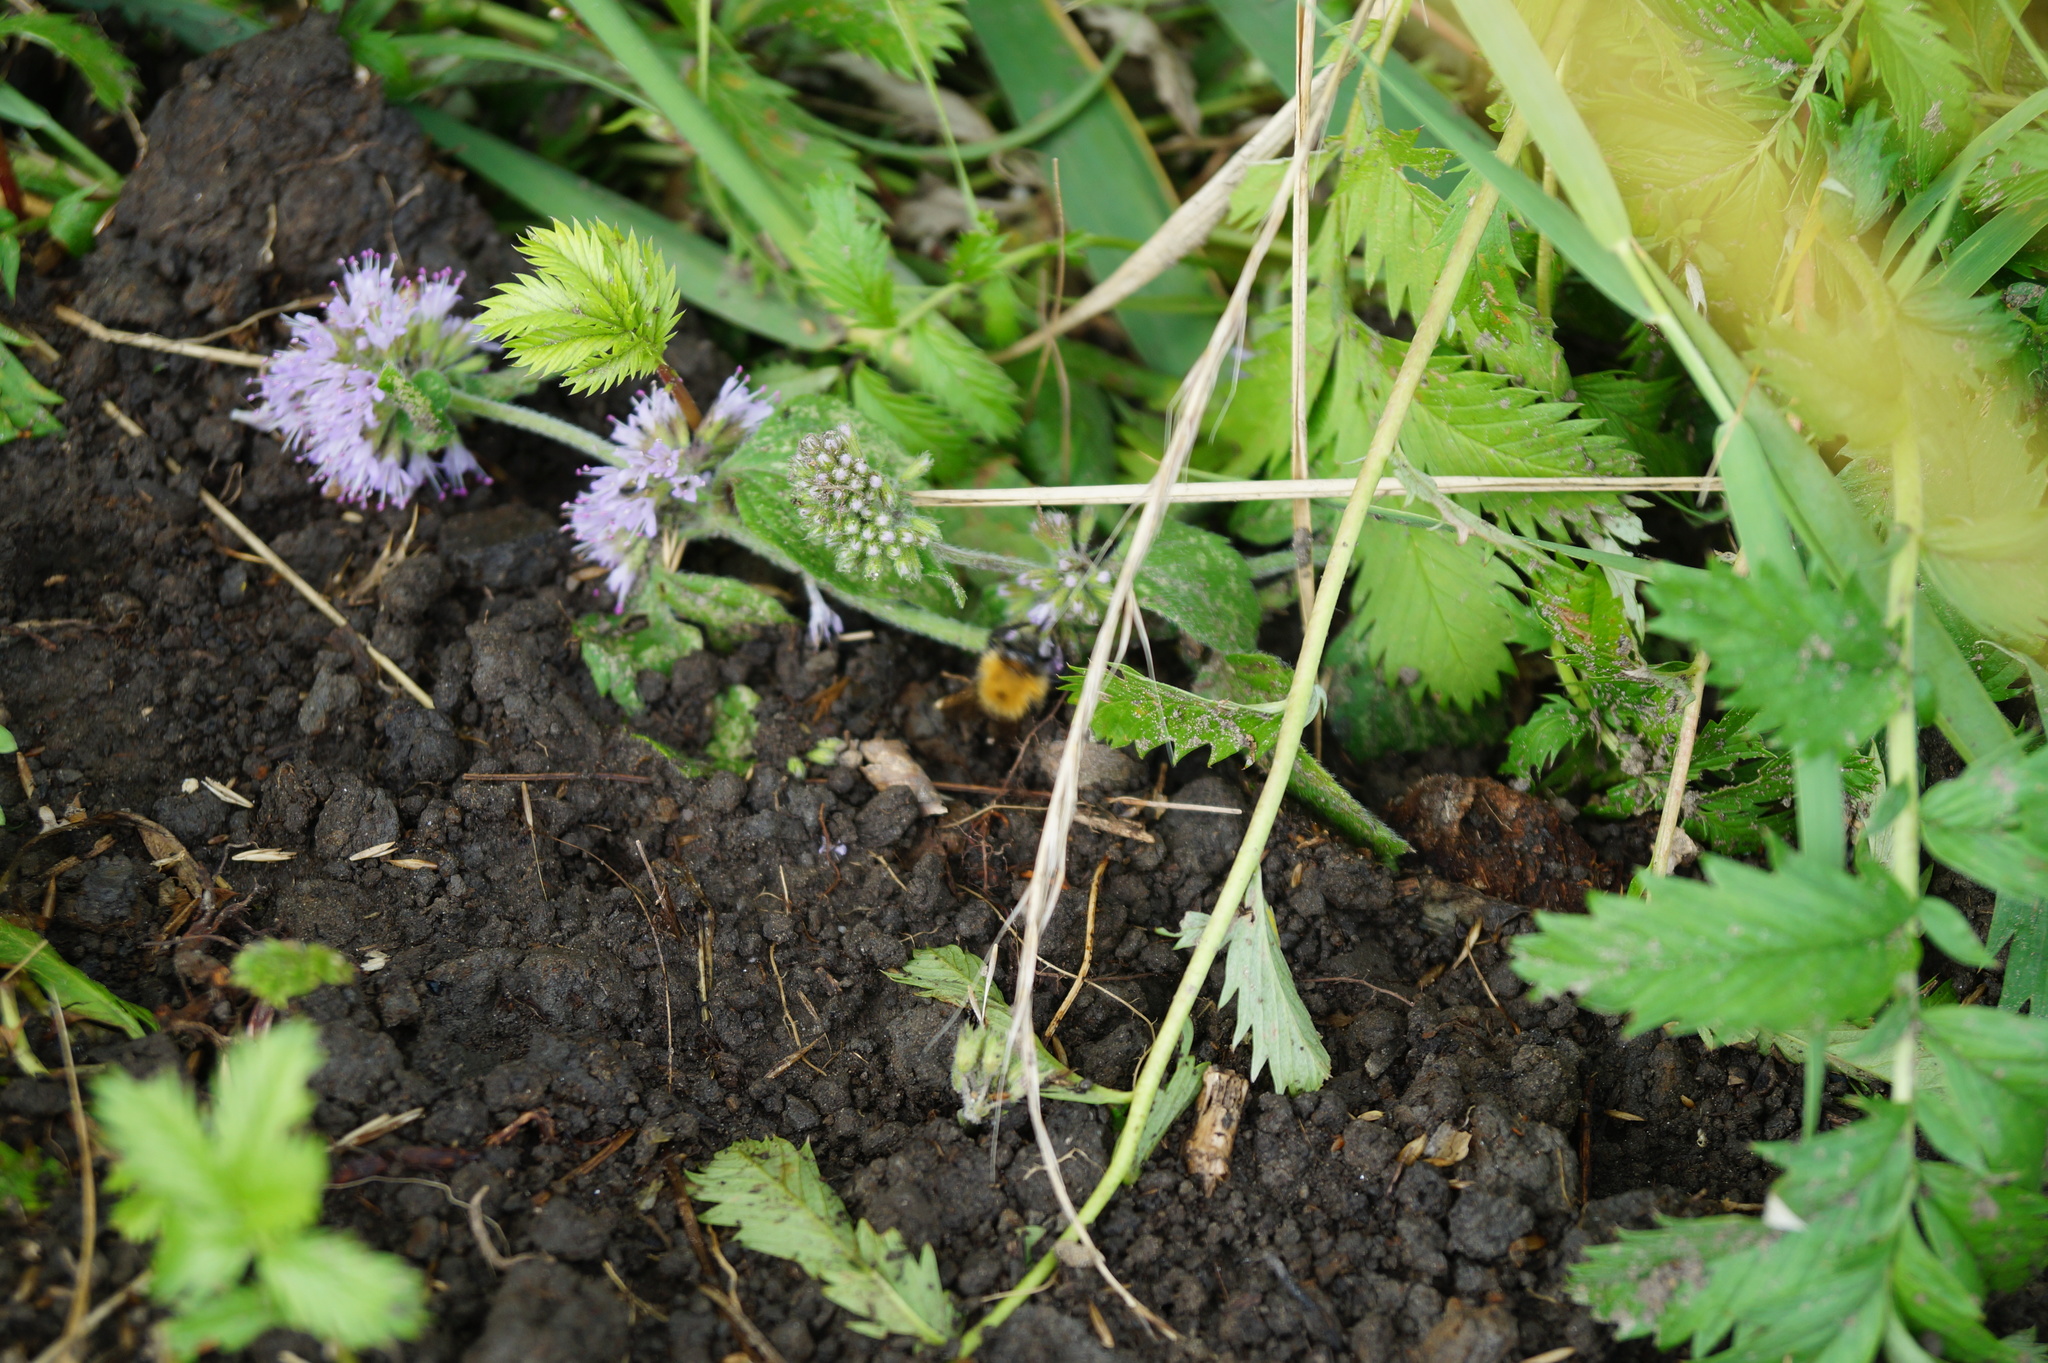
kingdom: Plantae
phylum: Tracheophyta
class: Magnoliopsida
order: Lamiales
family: Lamiaceae
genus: Mentha
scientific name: Mentha aquatica
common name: Water mint
